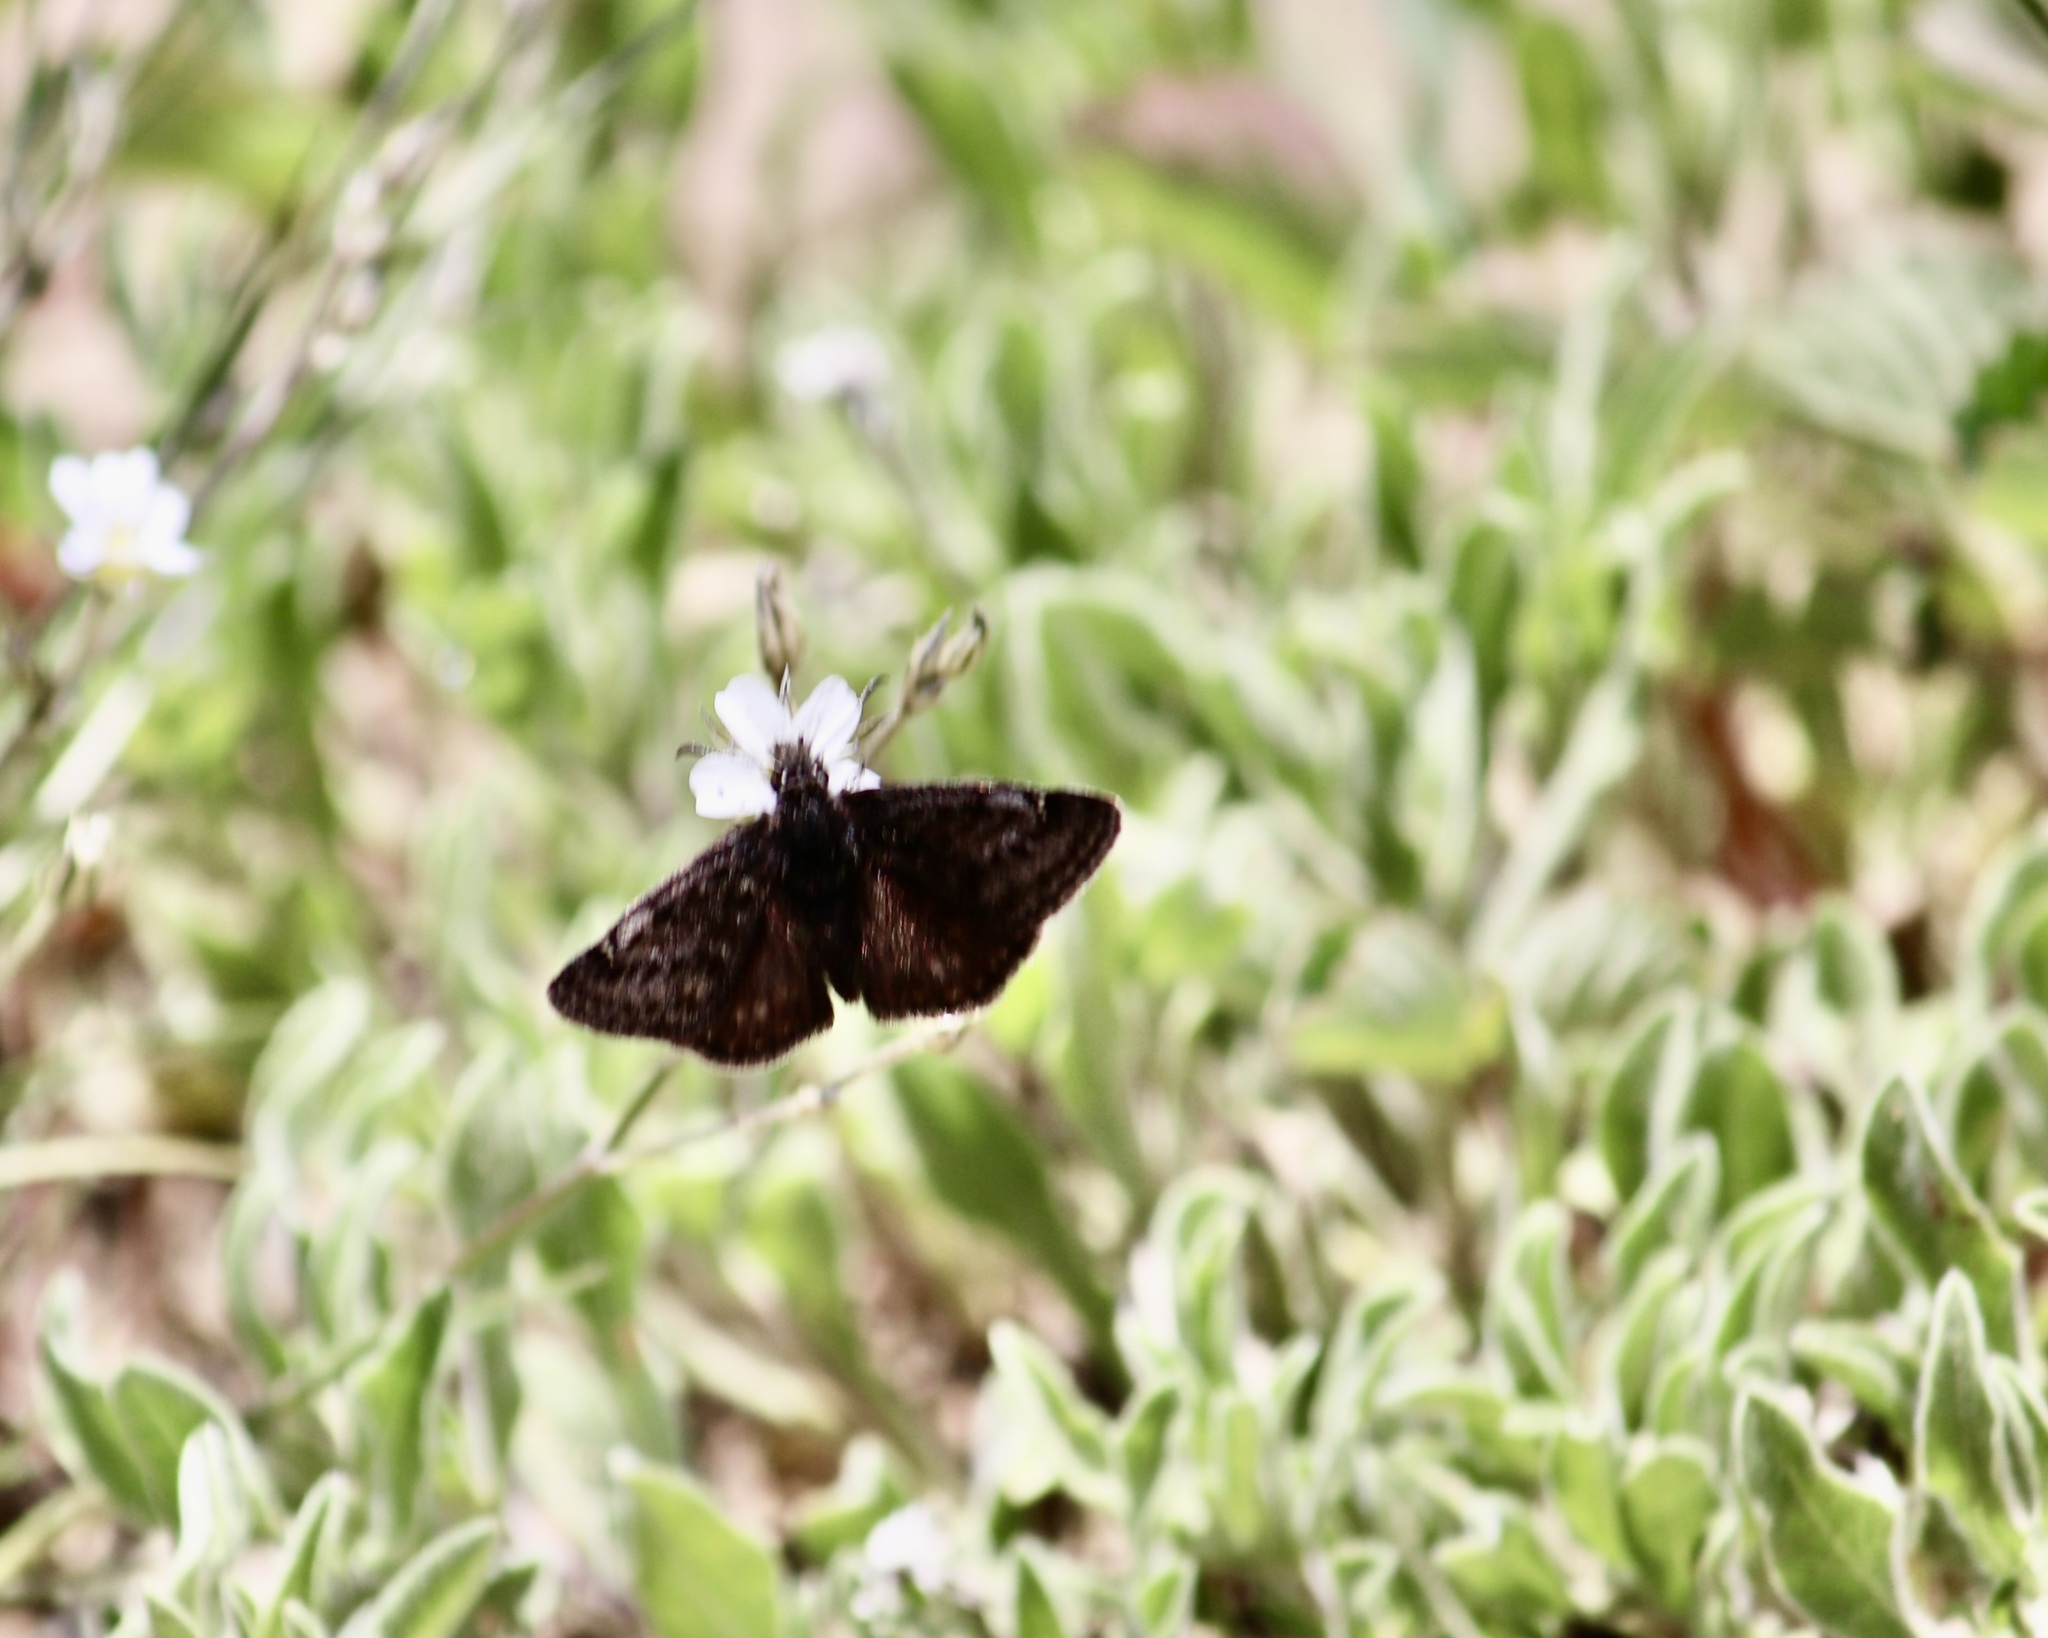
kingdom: Animalia
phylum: Arthropoda
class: Insecta
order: Lepidoptera
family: Hesperiidae
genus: Erynnis
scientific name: Erynnis persius
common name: Persius duskywing
